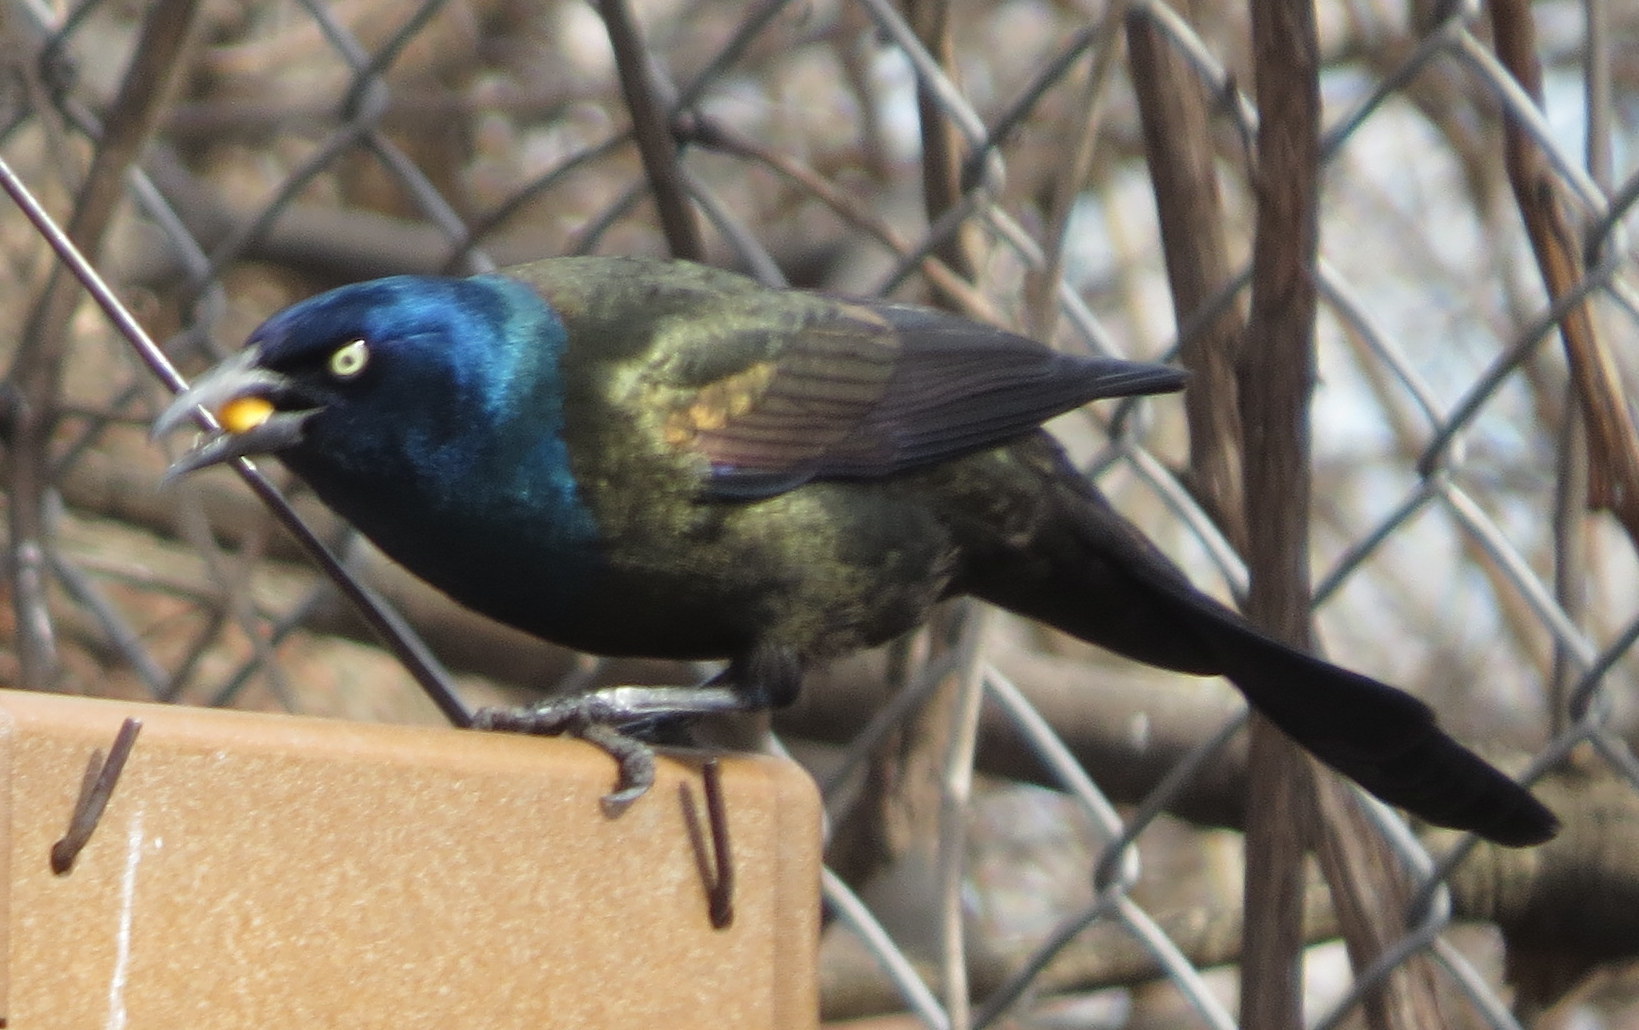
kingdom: Animalia
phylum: Chordata
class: Aves
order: Passeriformes
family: Icteridae
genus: Quiscalus
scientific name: Quiscalus quiscula
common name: Common grackle
